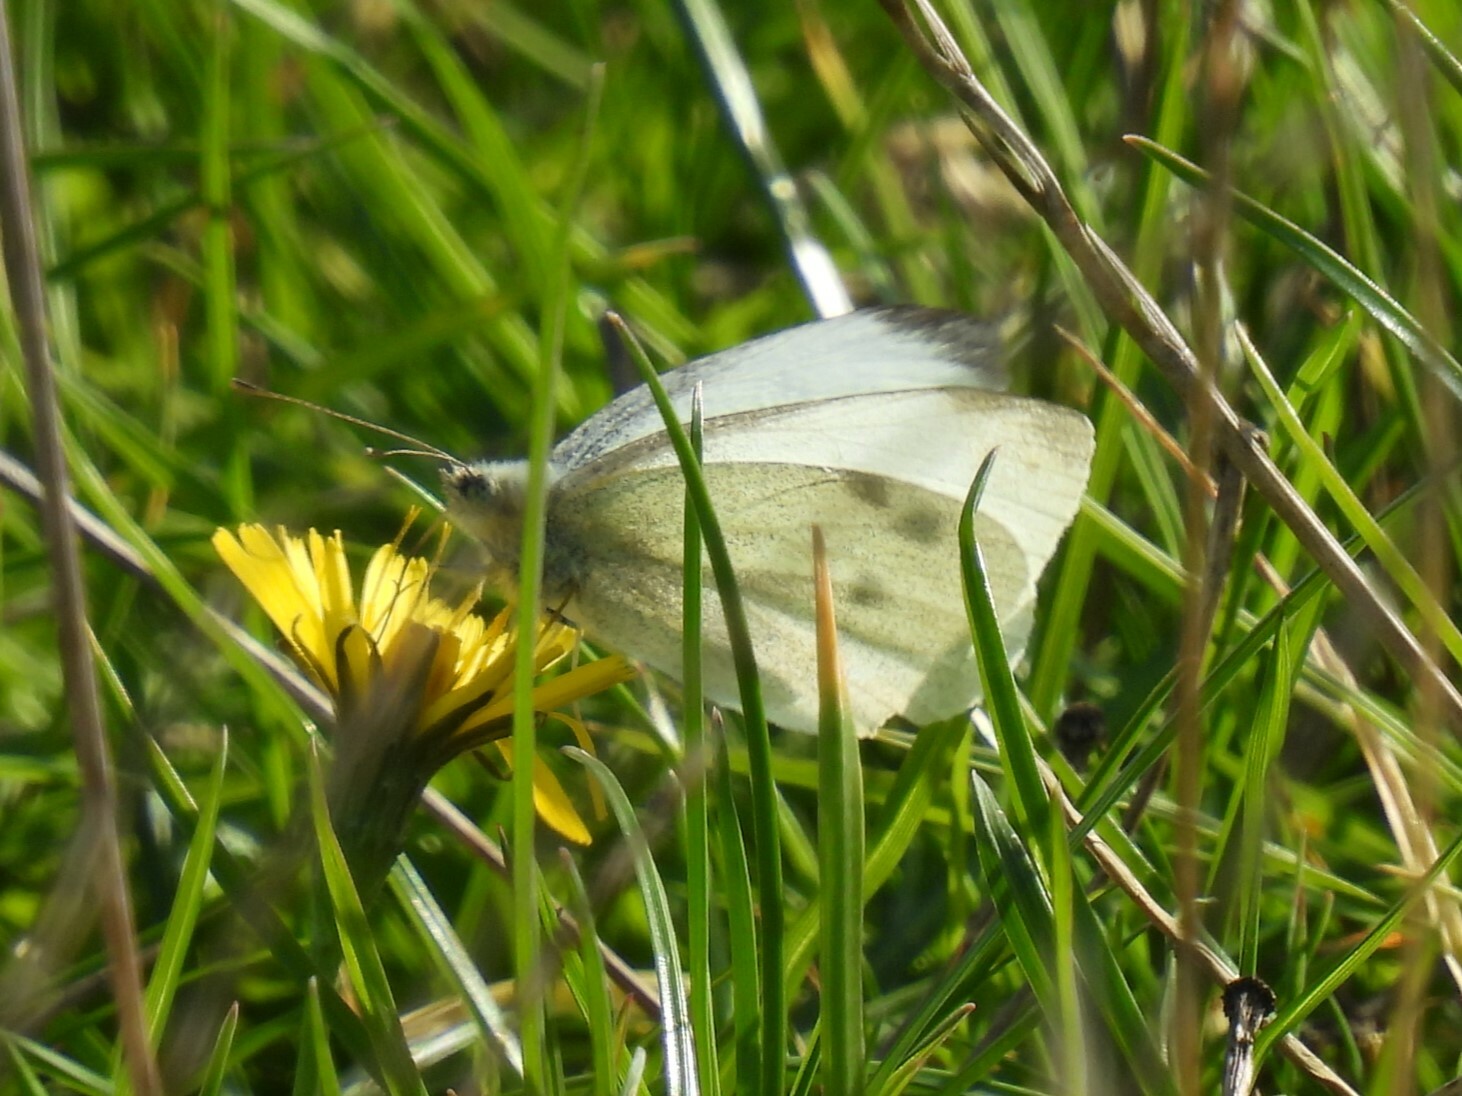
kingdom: Animalia
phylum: Arthropoda
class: Insecta
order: Lepidoptera
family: Pieridae
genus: Pieris
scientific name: Pieris rapae
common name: Small white
